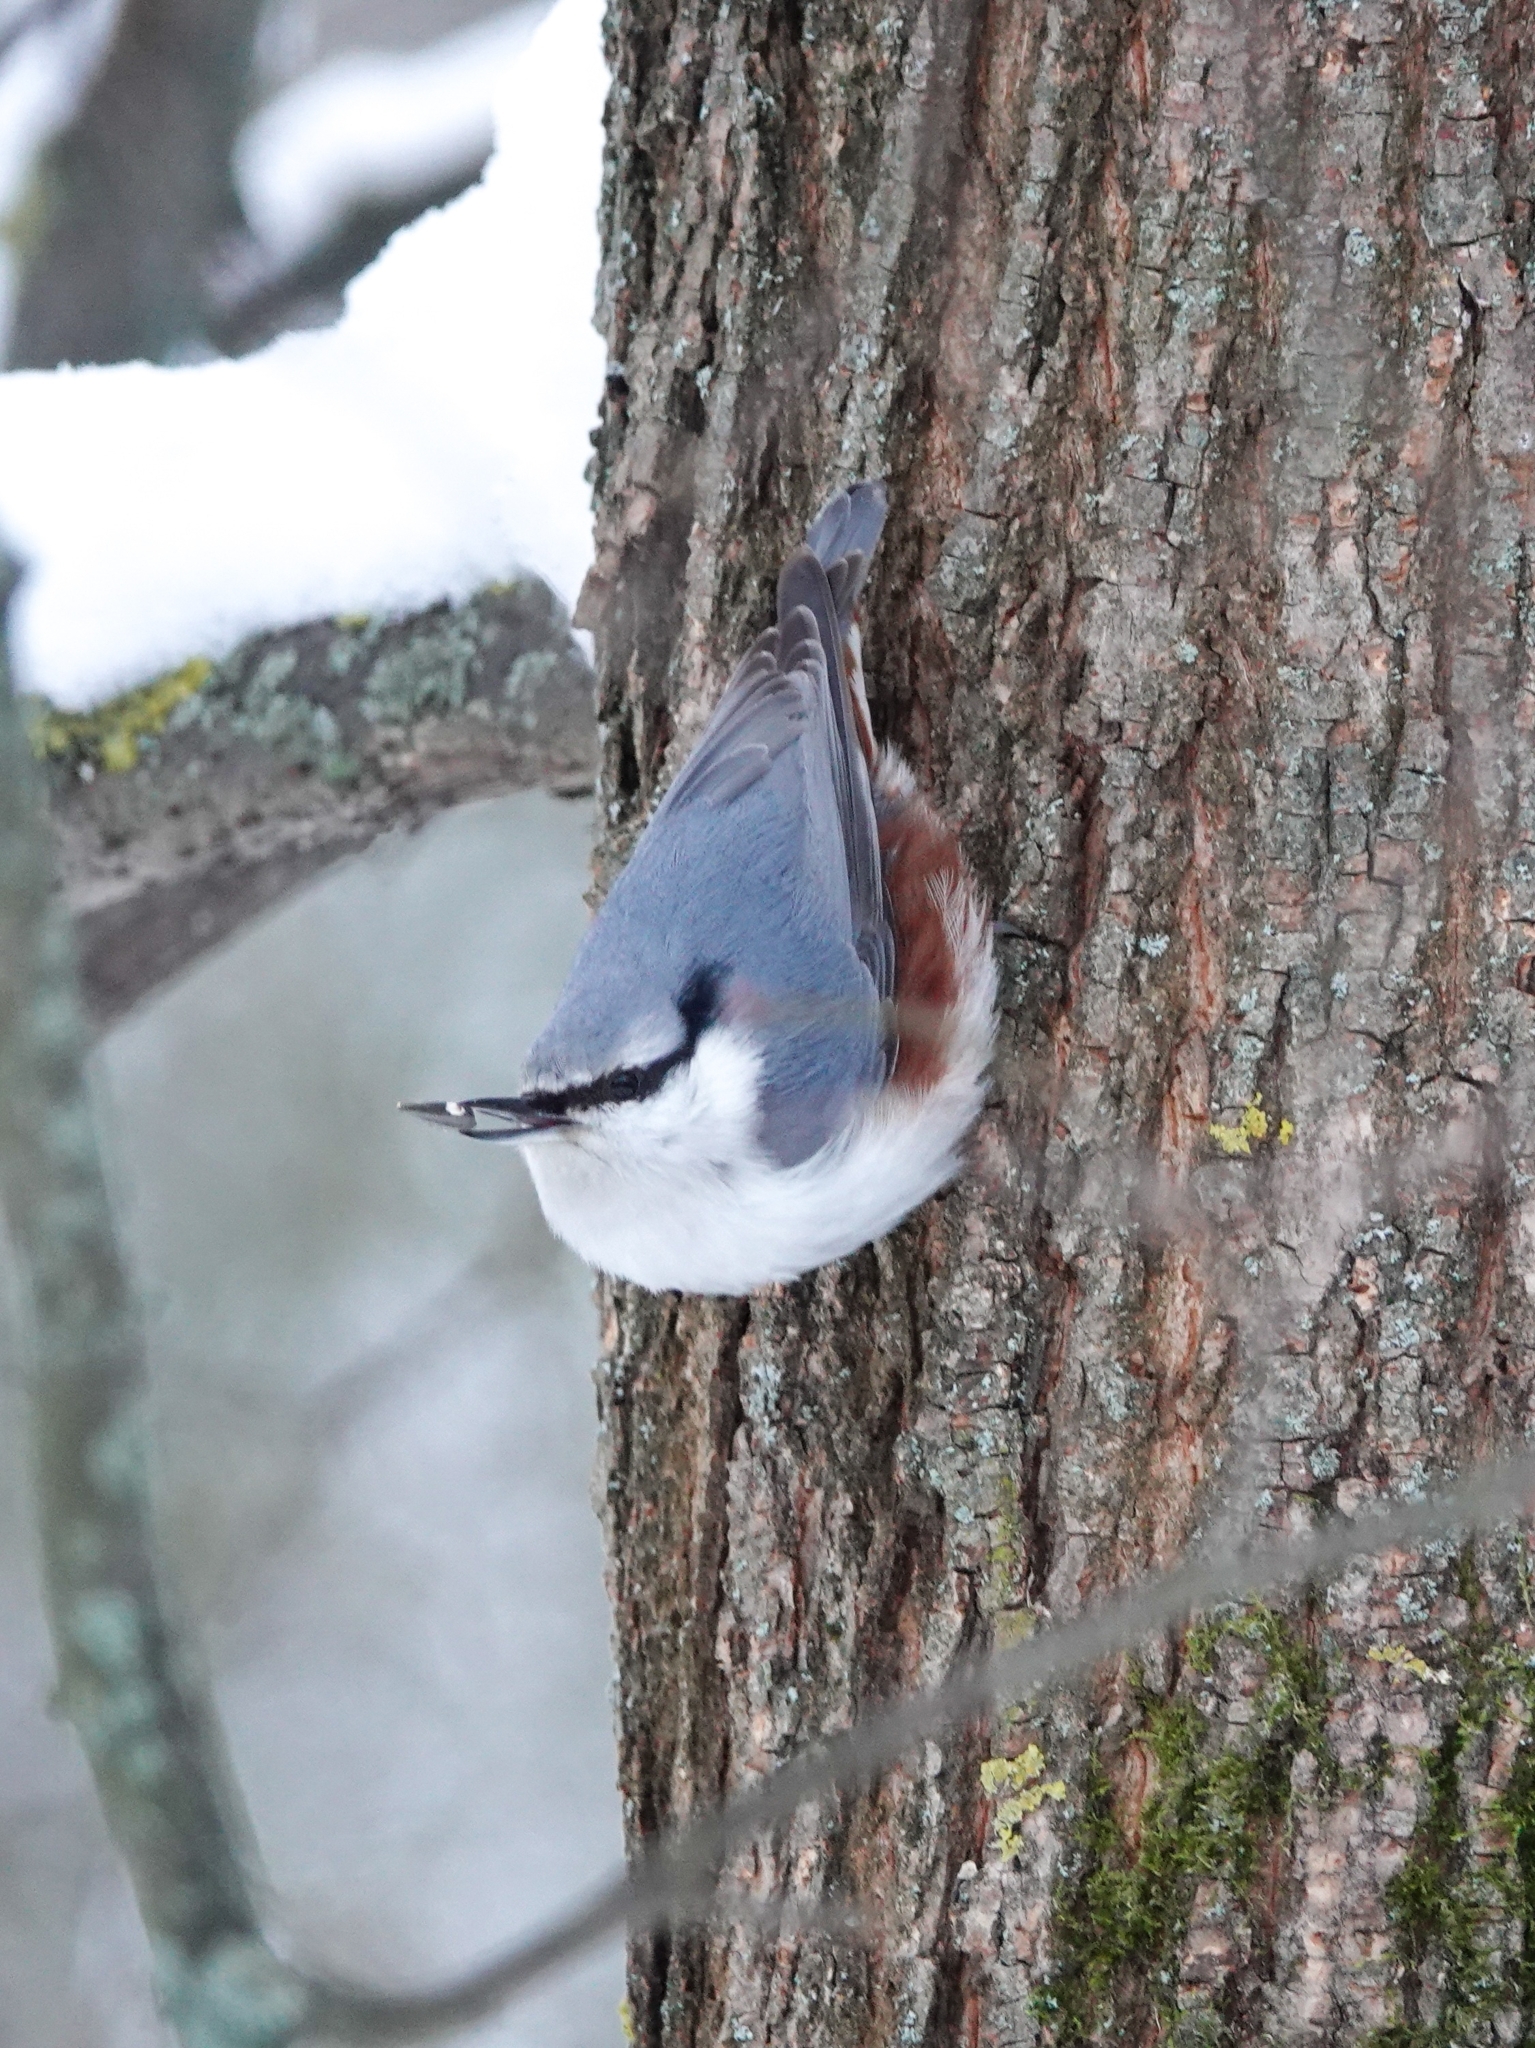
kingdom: Animalia
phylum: Chordata
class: Aves
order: Passeriformes
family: Sittidae
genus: Sitta
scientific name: Sitta europaea
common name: Eurasian nuthatch
